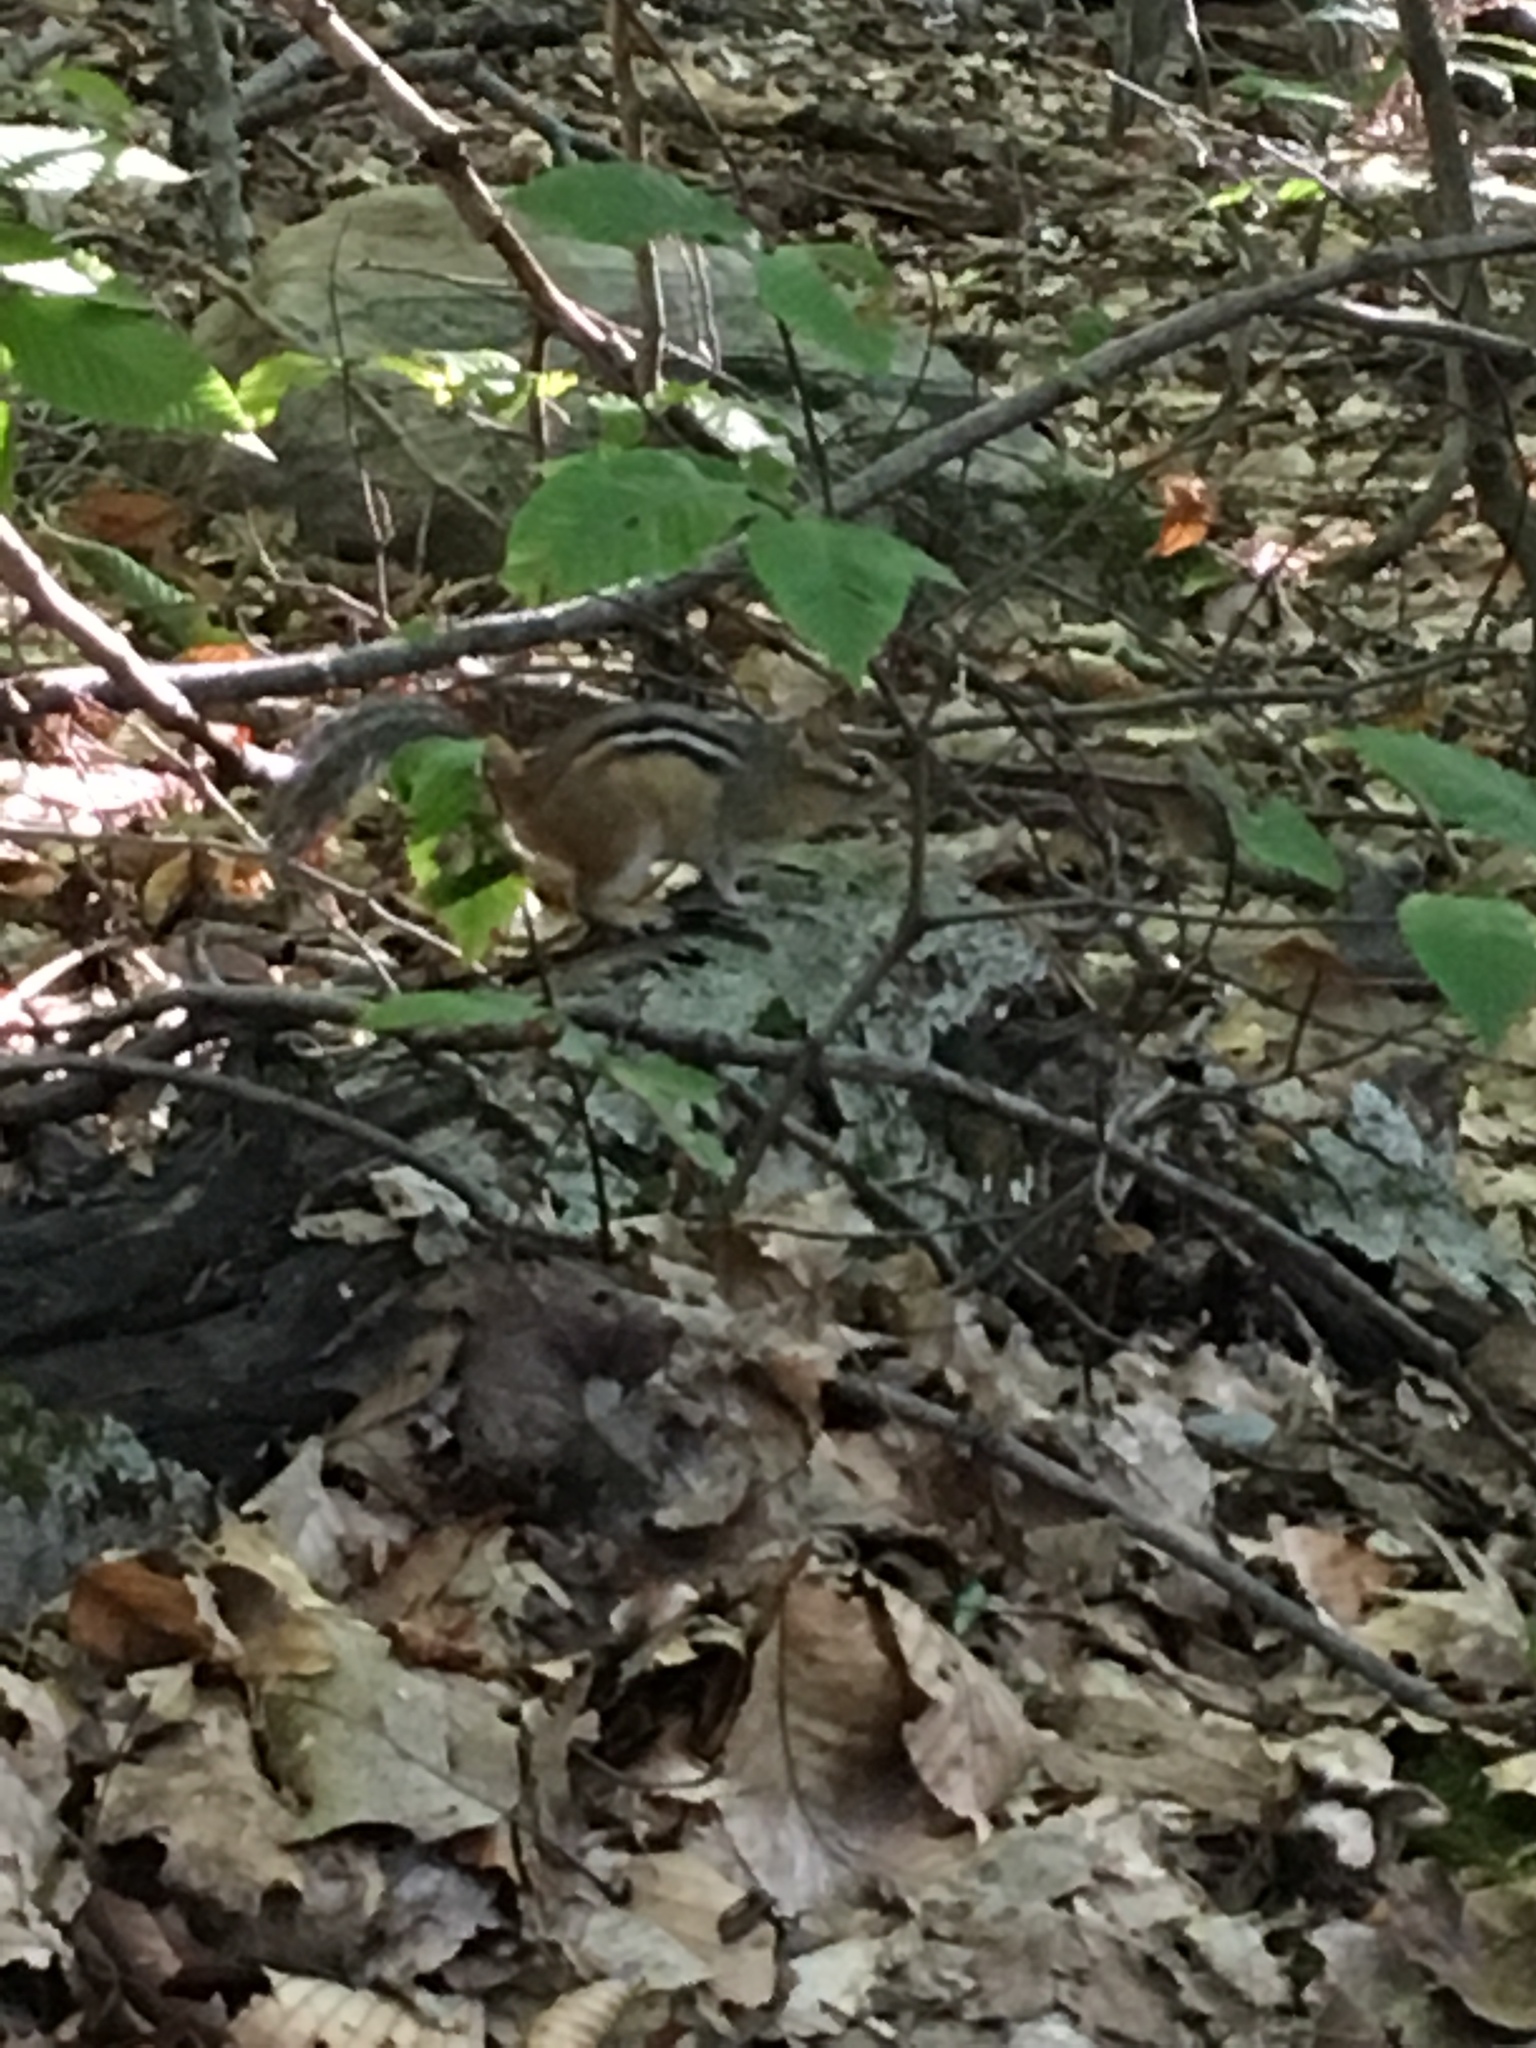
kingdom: Animalia
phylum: Chordata
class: Mammalia
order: Rodentia
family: Sciuridae
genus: Tamias
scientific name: Tamias striatus
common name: Eastern chipmunk
